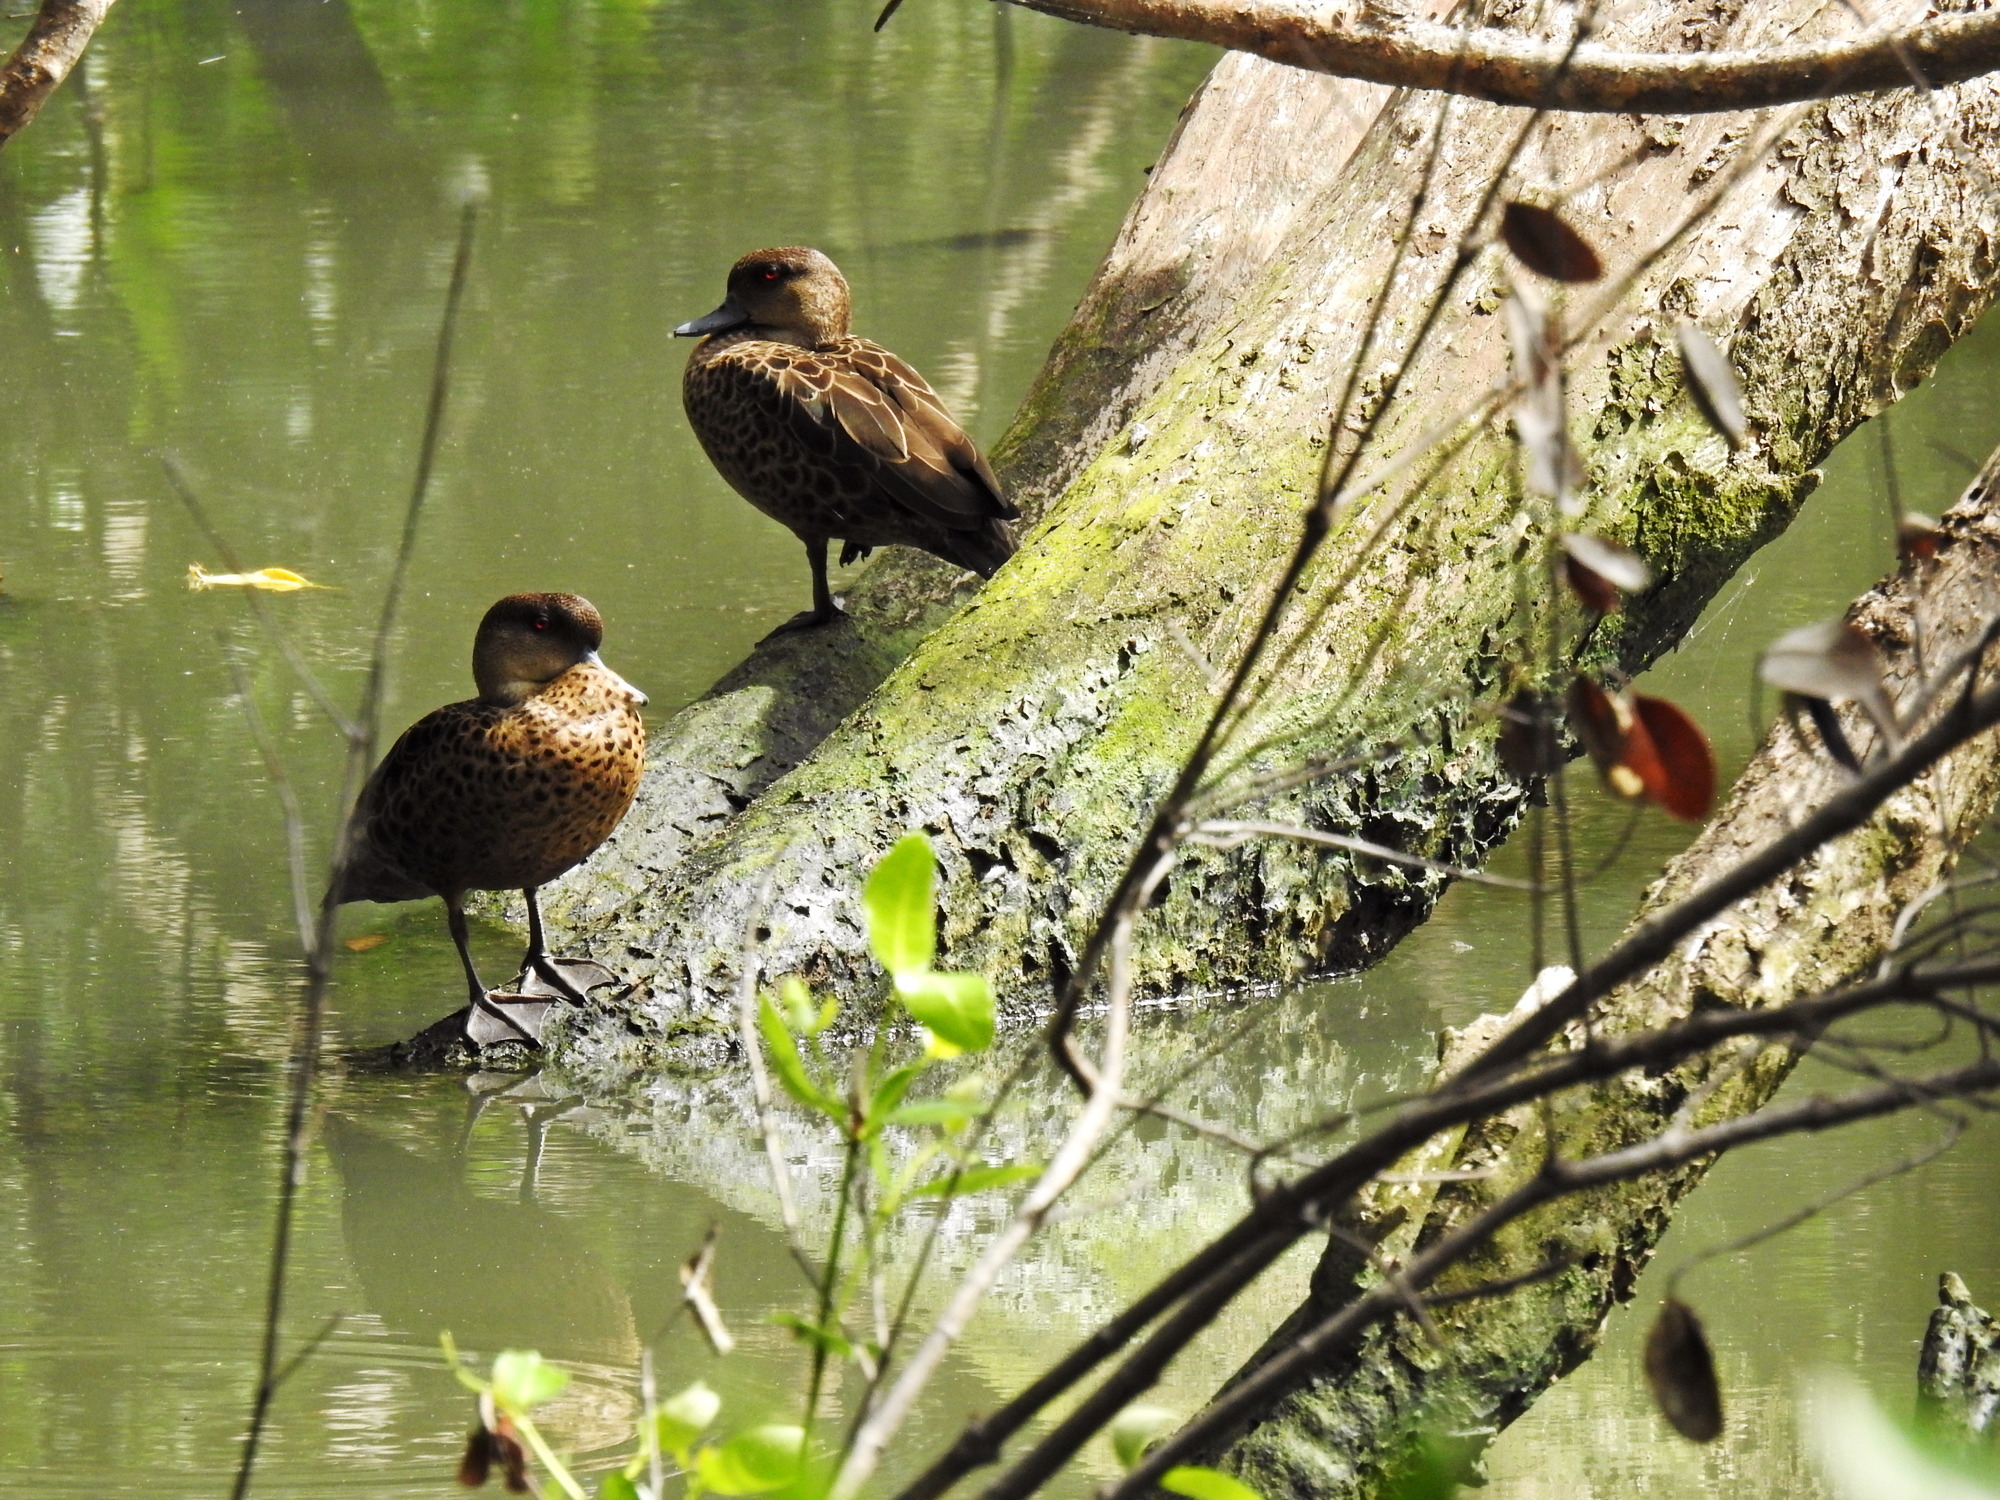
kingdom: Animalia
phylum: Chordata
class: Aves
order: Anseriformes
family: Anatidae
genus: Anas
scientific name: Anas gibberifrons
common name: Sunda teal
